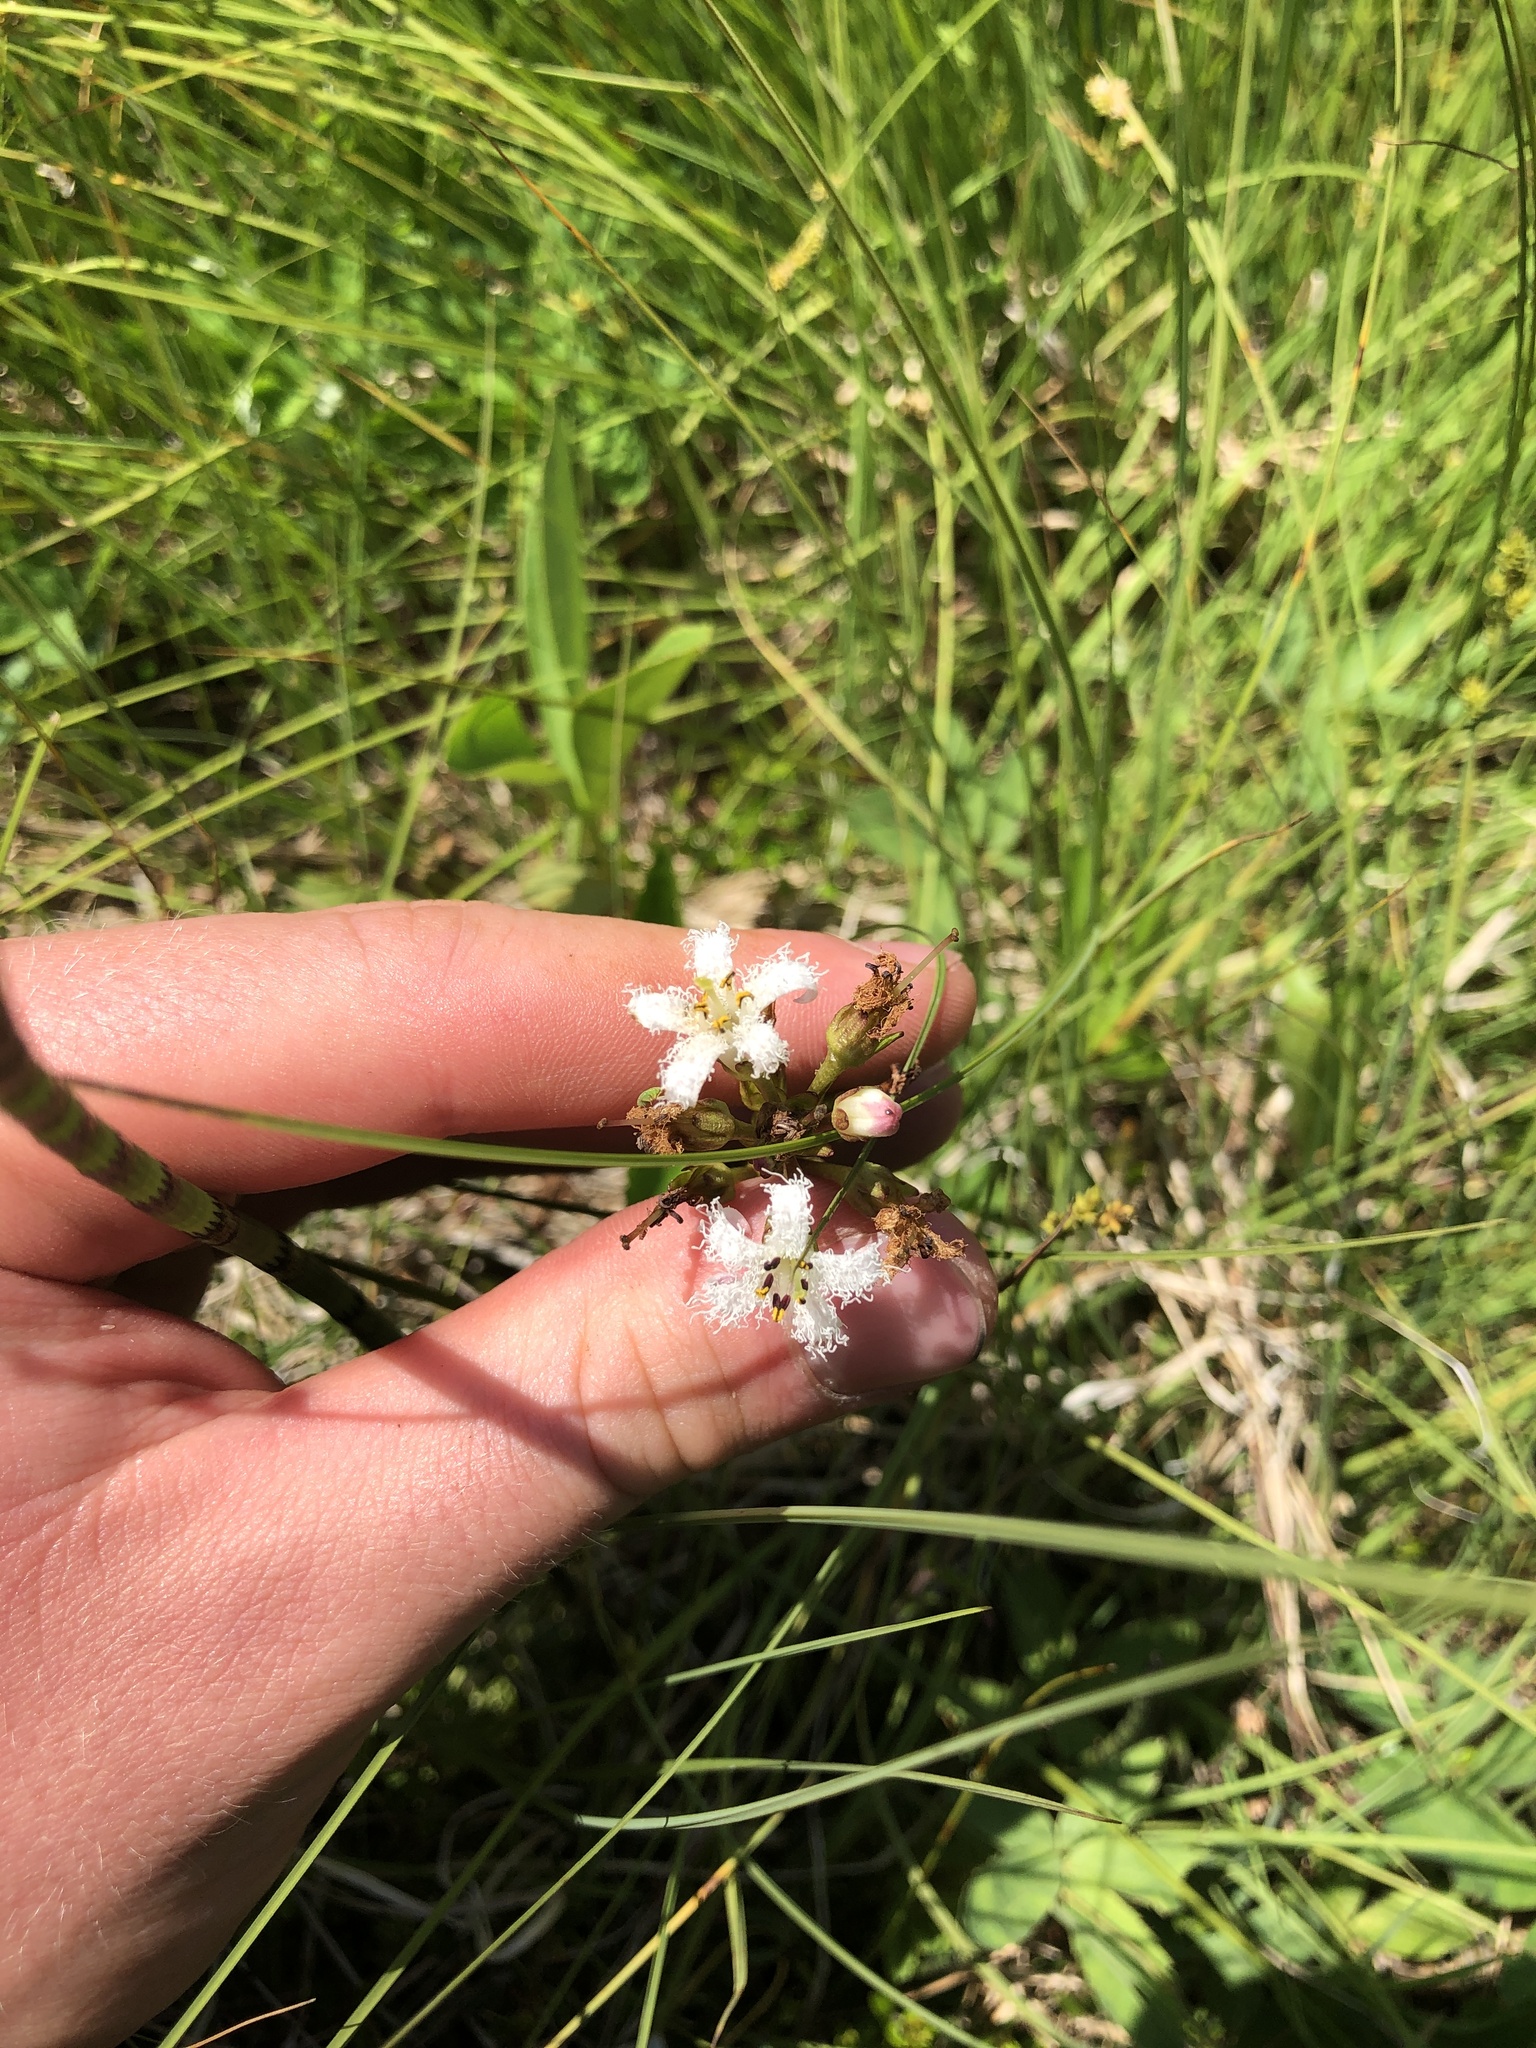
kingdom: Plantae
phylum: Tracheophyta
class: Magnoliopsida
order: Asterales
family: Menyanthaceae
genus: Menyanthes
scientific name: Menyanthes trifoliata
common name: Bogbean
